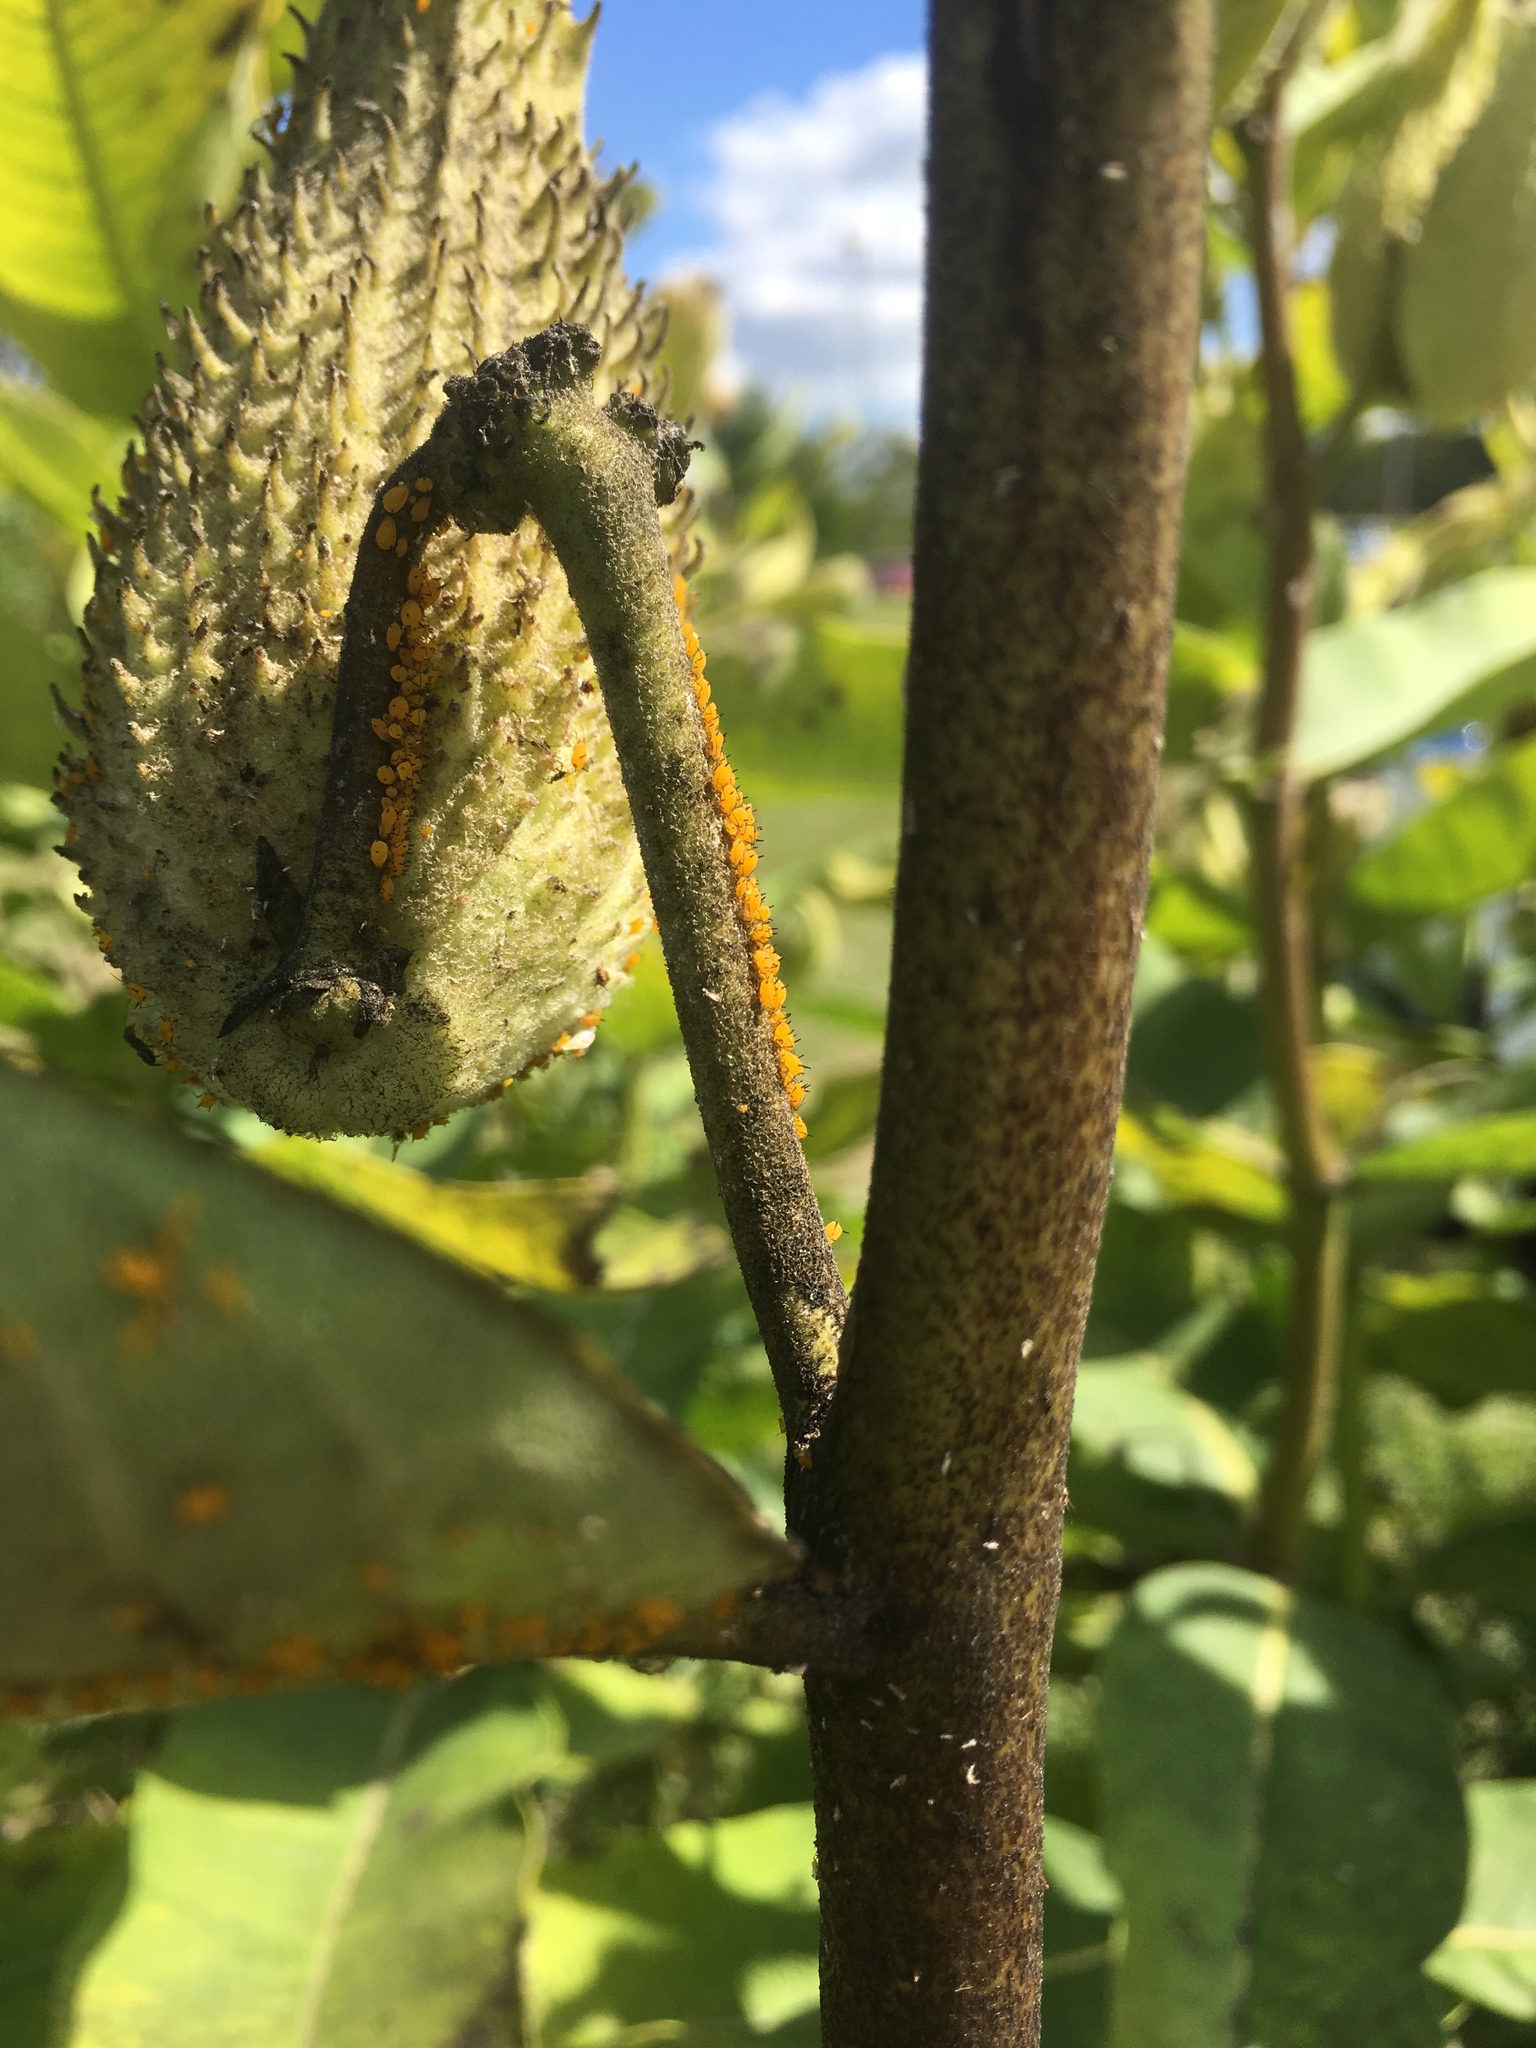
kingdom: Animalia
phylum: Arthropoda
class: Insecta
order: Hemiptera
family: Aphididae
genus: Aphis
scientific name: Aphis nerii
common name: Oleander aphid
